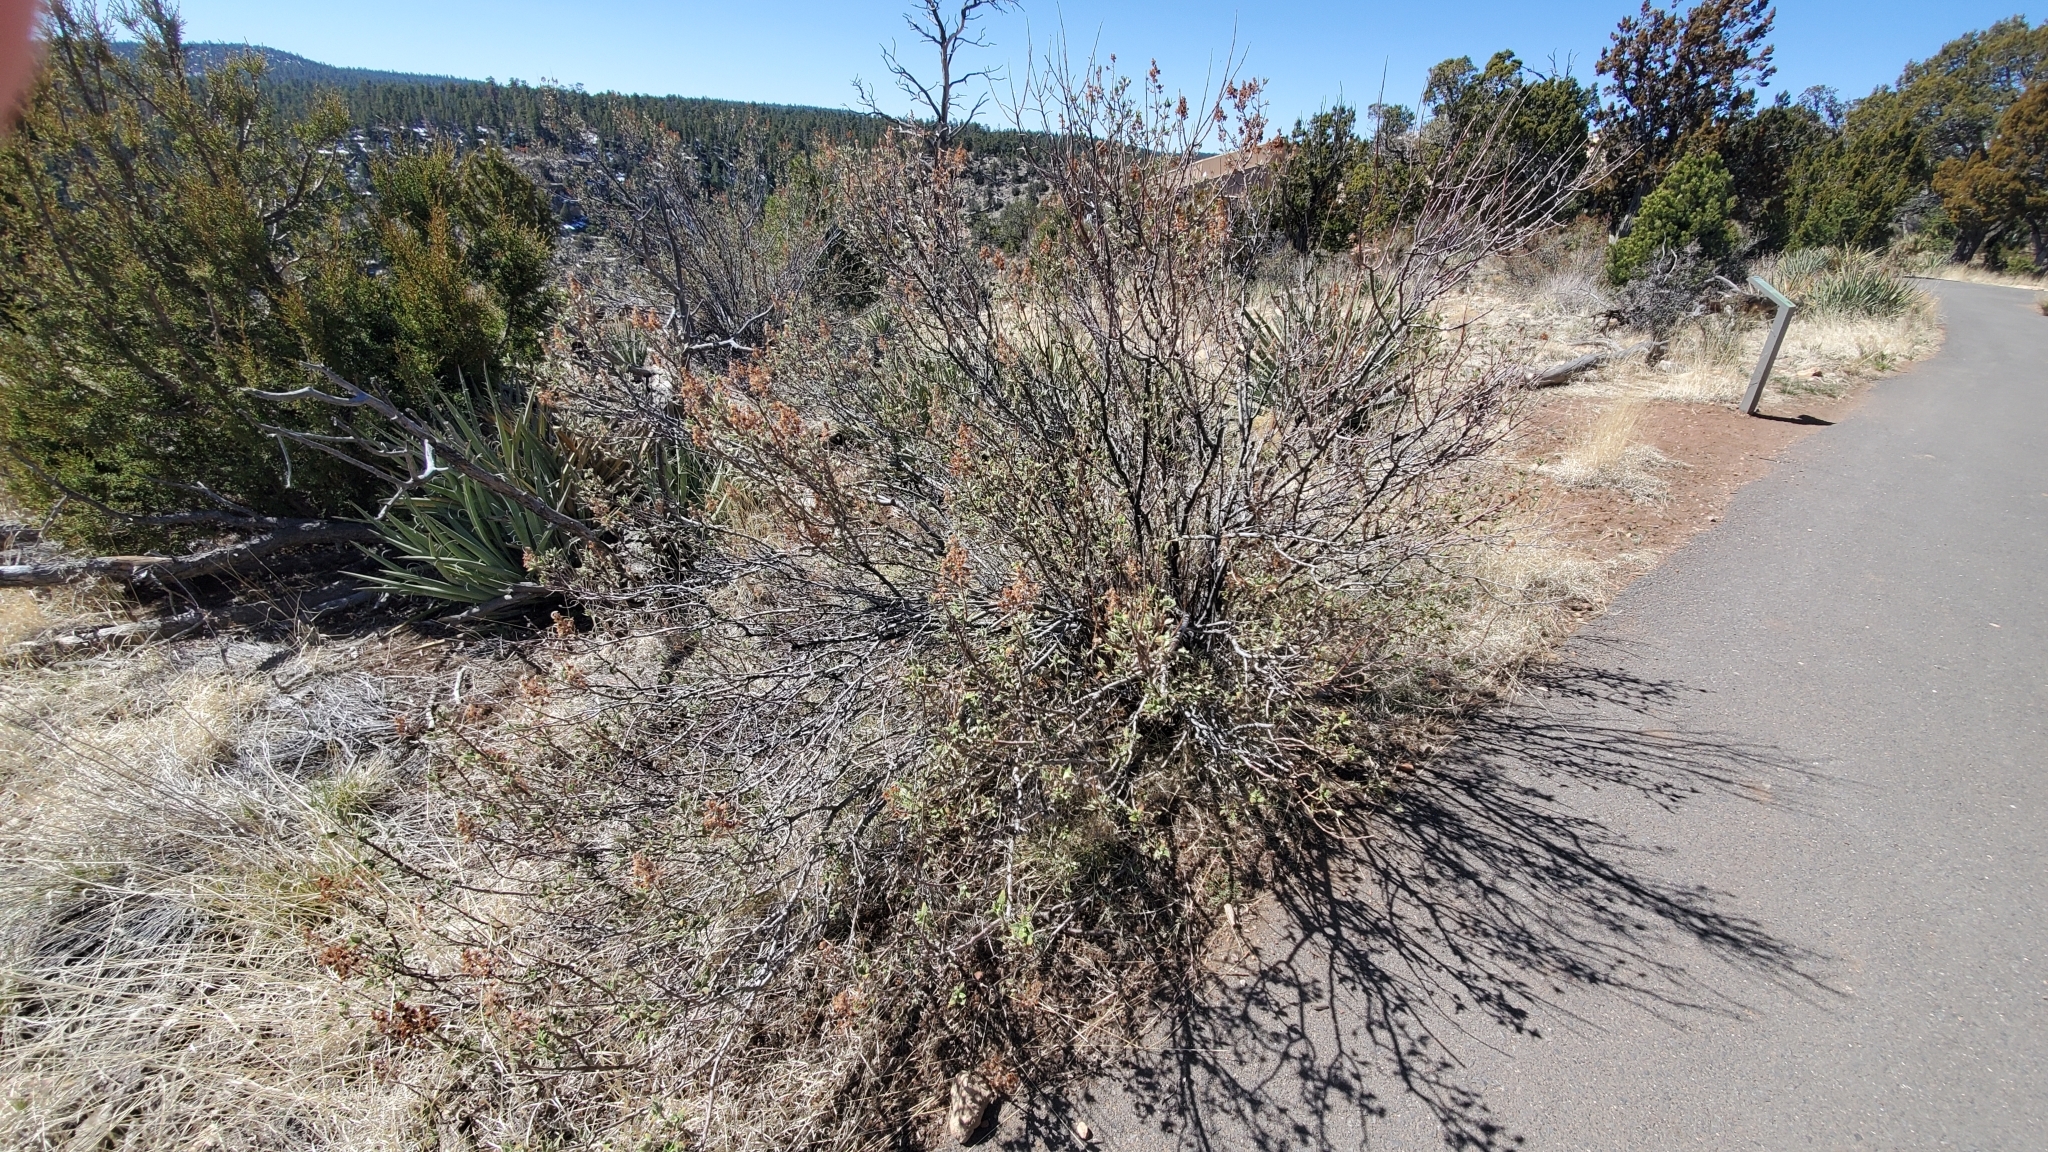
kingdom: Plantae
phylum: Tracheophyta
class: Magnoliopsida
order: Rosales
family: Rosaceae
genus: Chamaebatiaria
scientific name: Chamaebatiaria millefolium
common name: Fernbush
